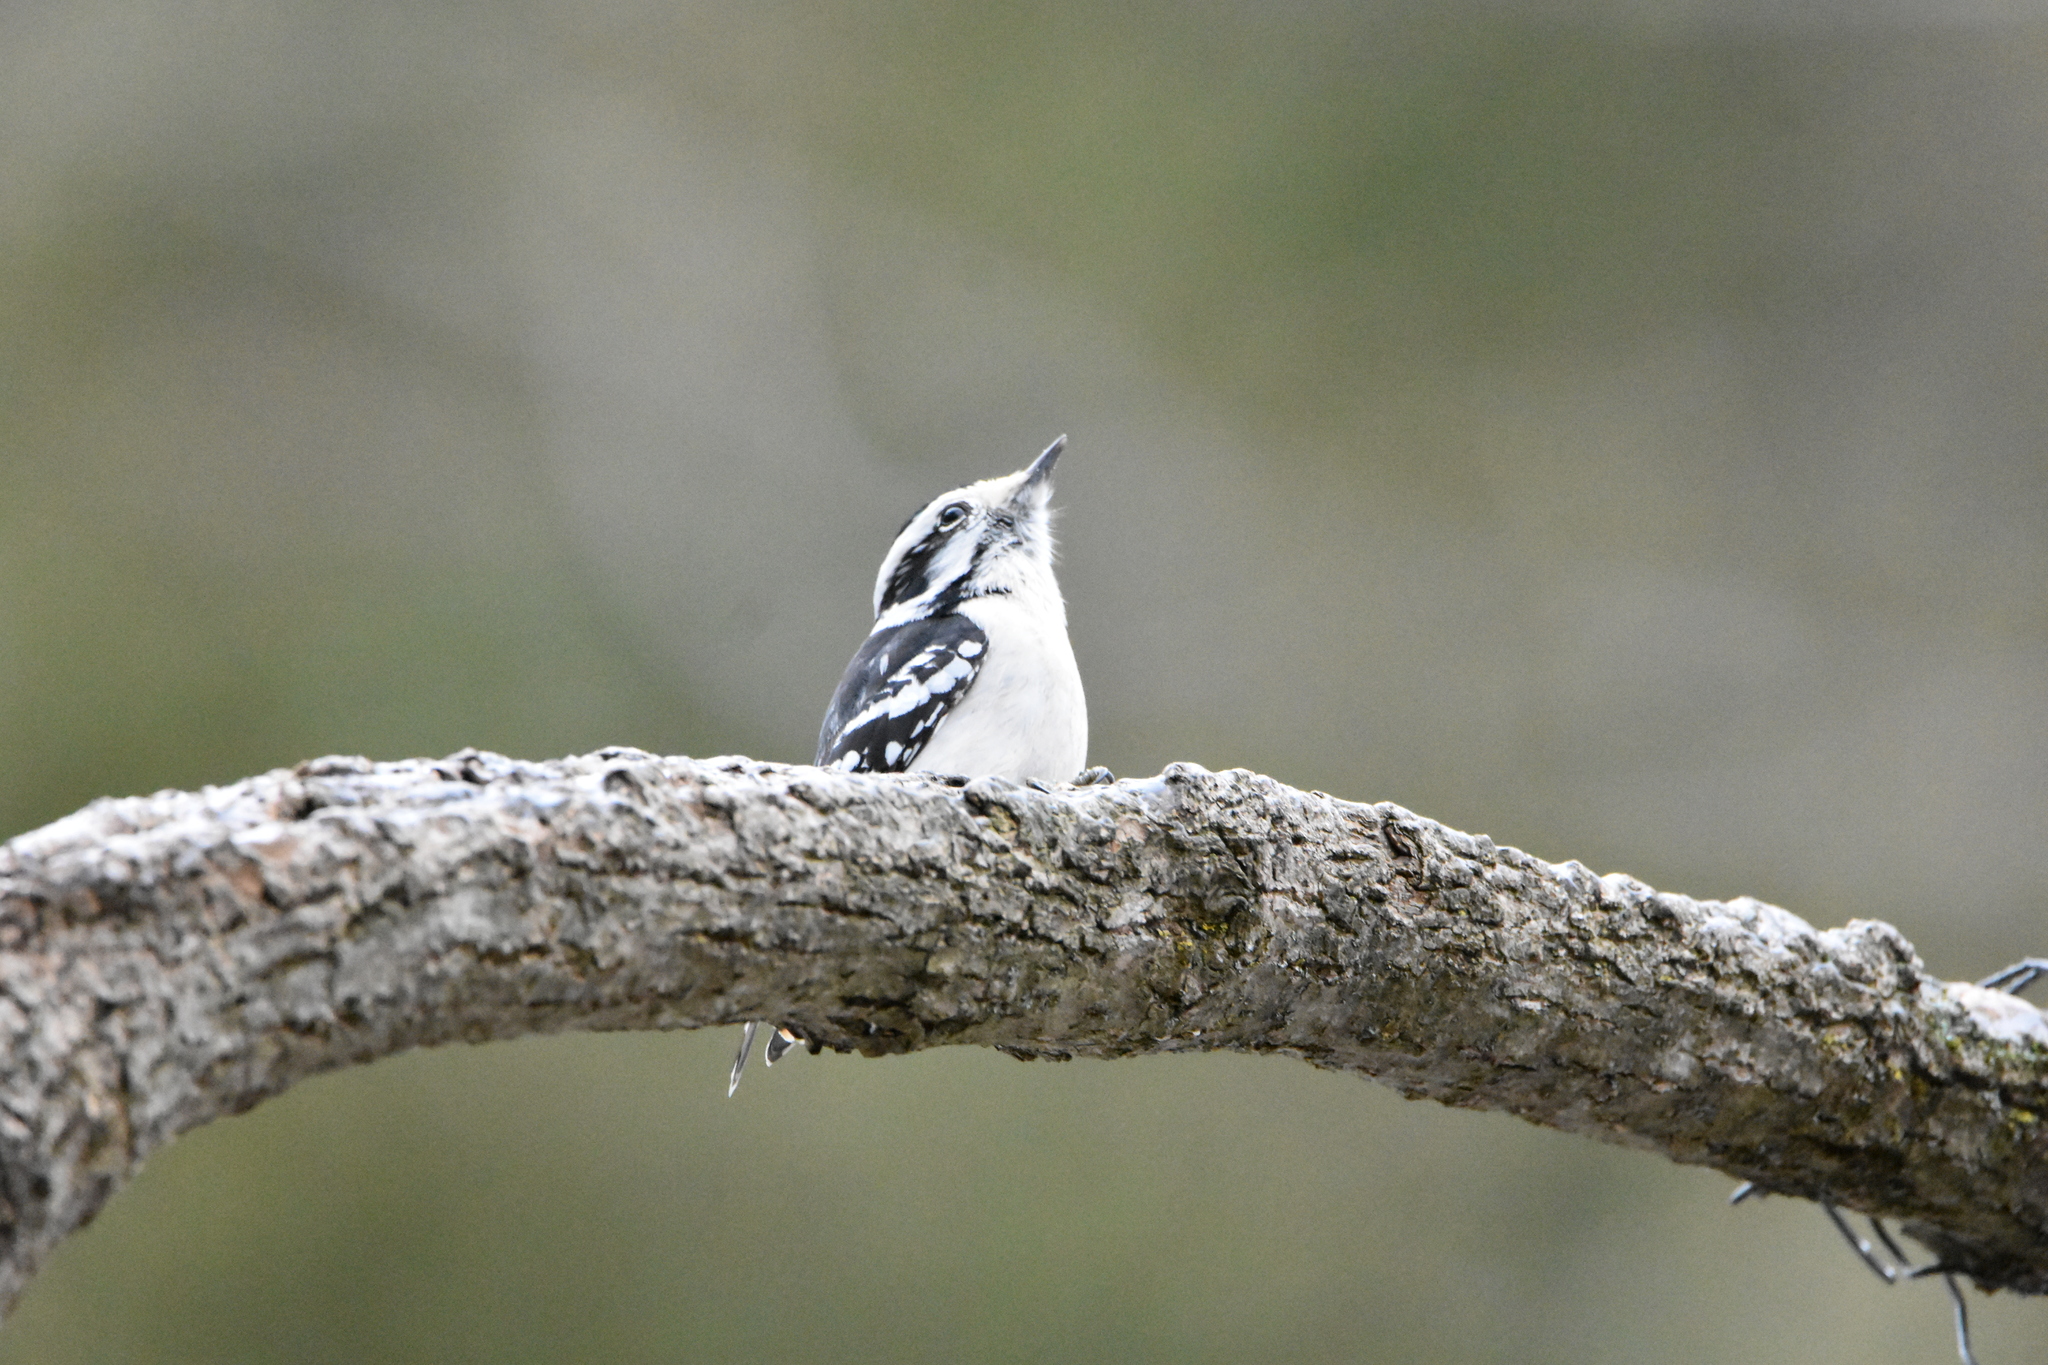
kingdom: Animalia
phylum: Chordata
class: Aves
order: Piciformes
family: Picidae
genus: Dryobates
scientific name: Dryobates pubescens
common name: Downy woodpecker
